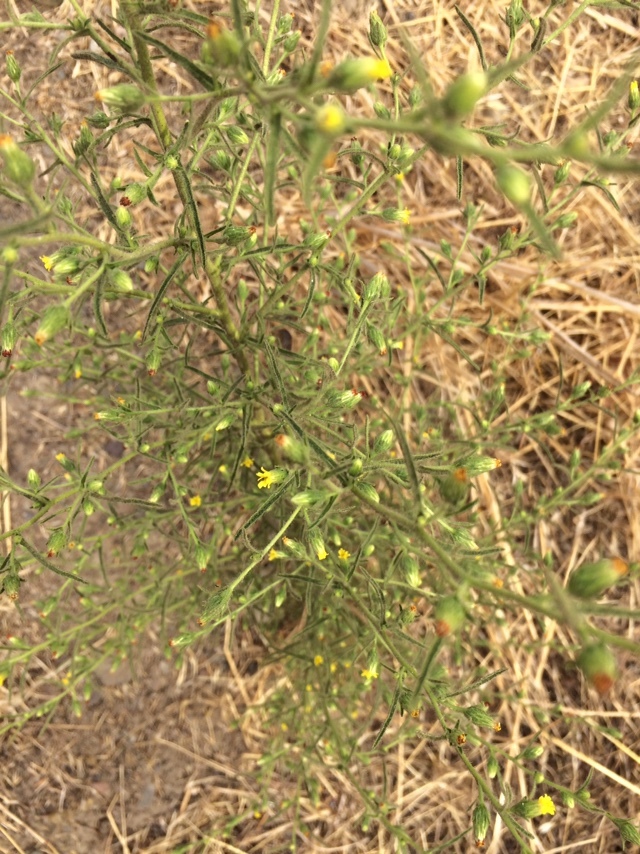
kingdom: Plantae
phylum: Tracheophyta
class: Magnoliopsida
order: Asterales
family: Asteraceae
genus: Dittrichia
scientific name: Dittrichia graveolens
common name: Stinking fleabane
